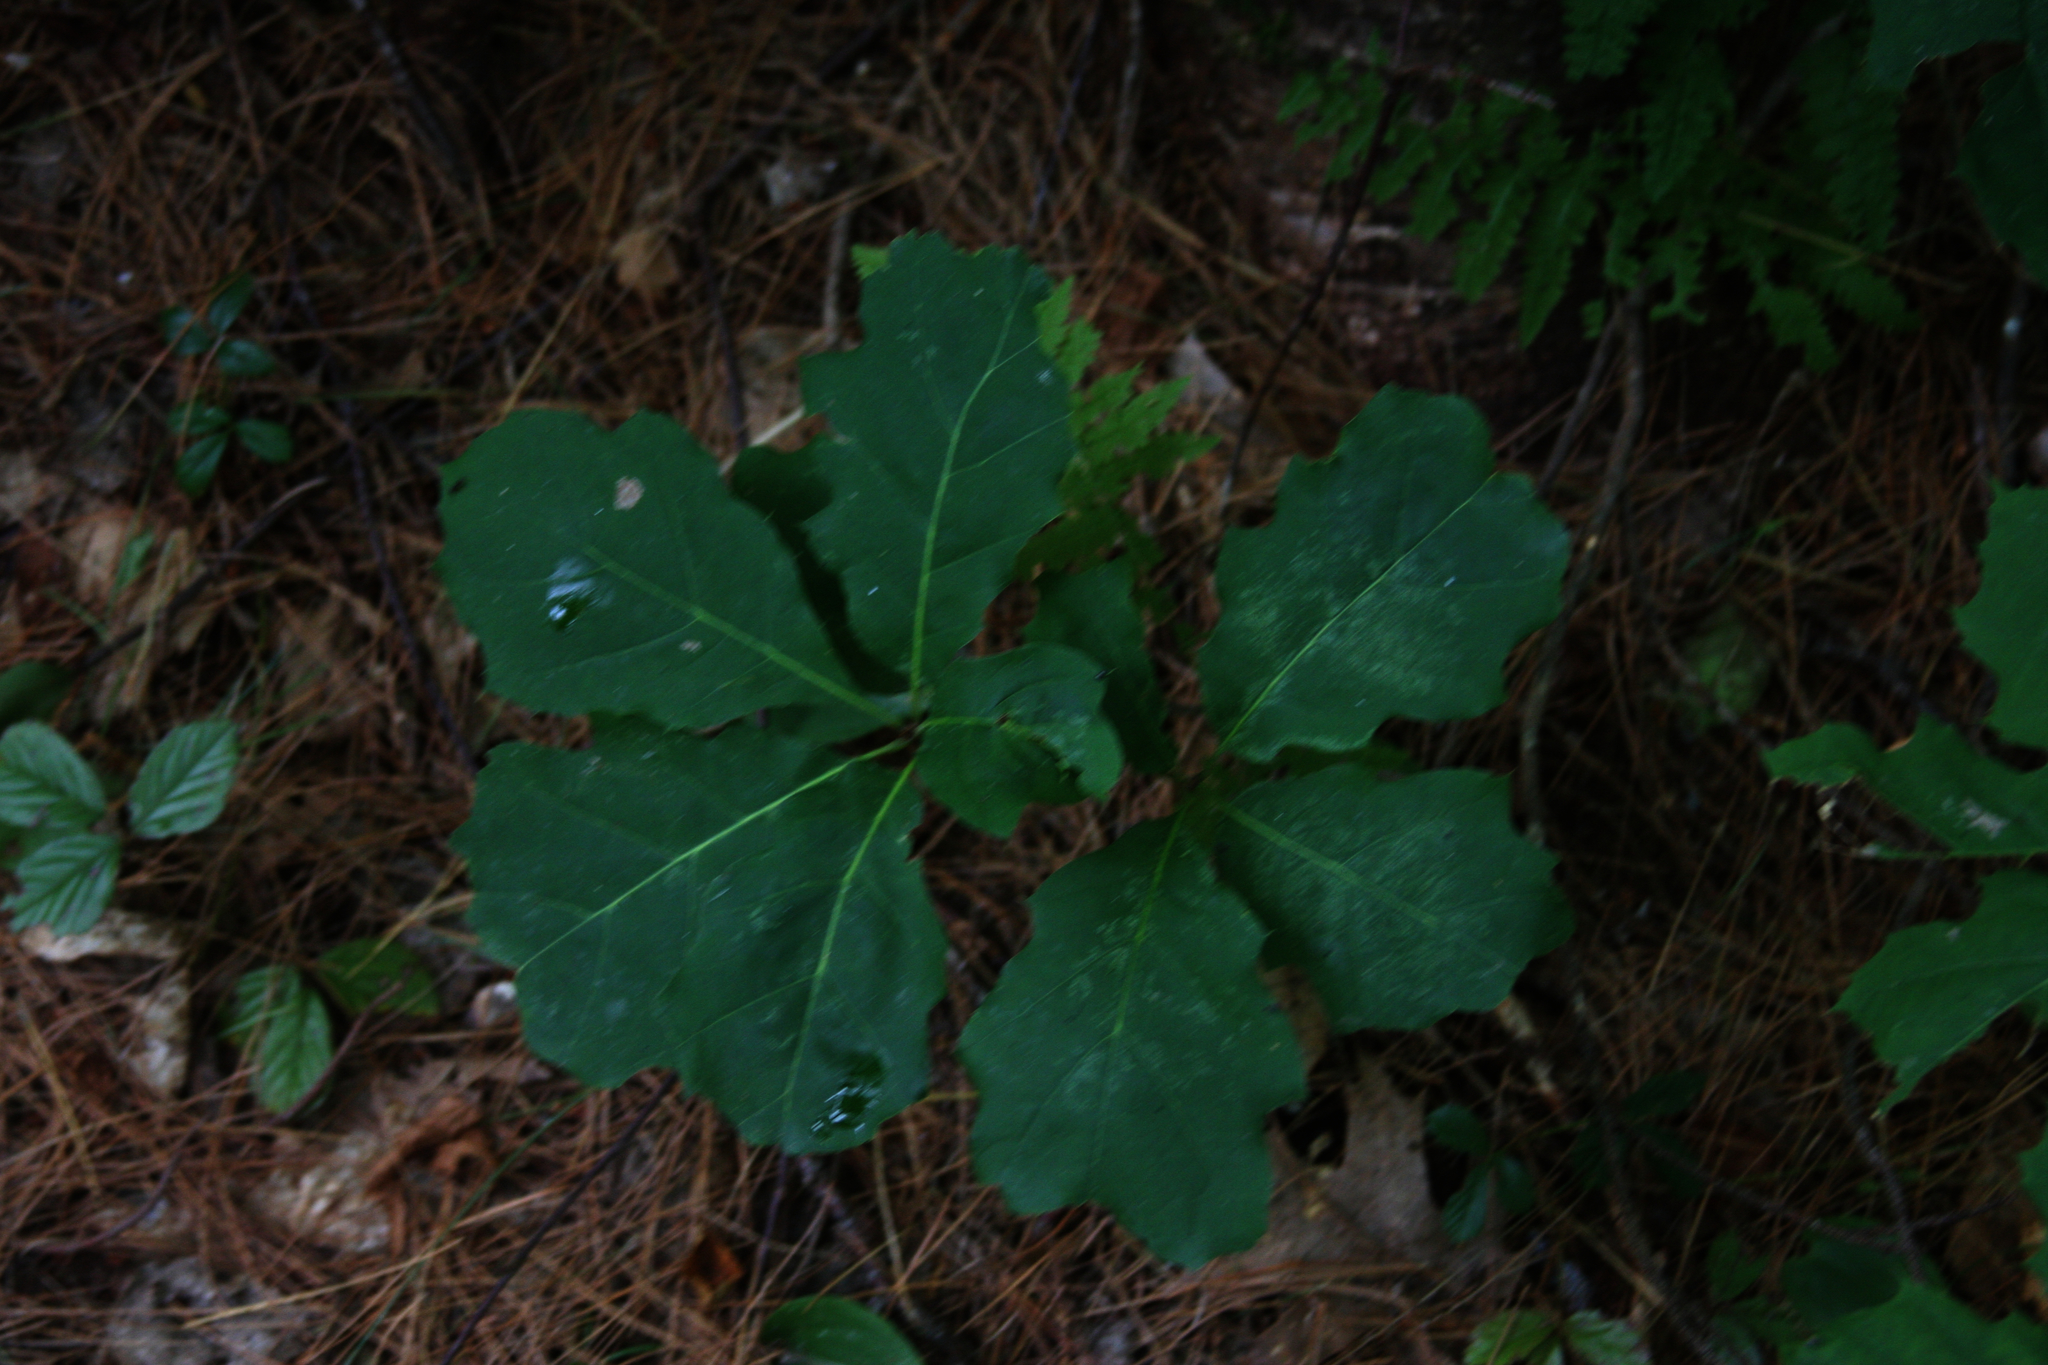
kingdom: Plantae
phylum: Tracheophyta
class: Magnoliopsida
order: Fagales
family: Fagaceae
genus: Quercus
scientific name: Quercus rubra
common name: Red oak
